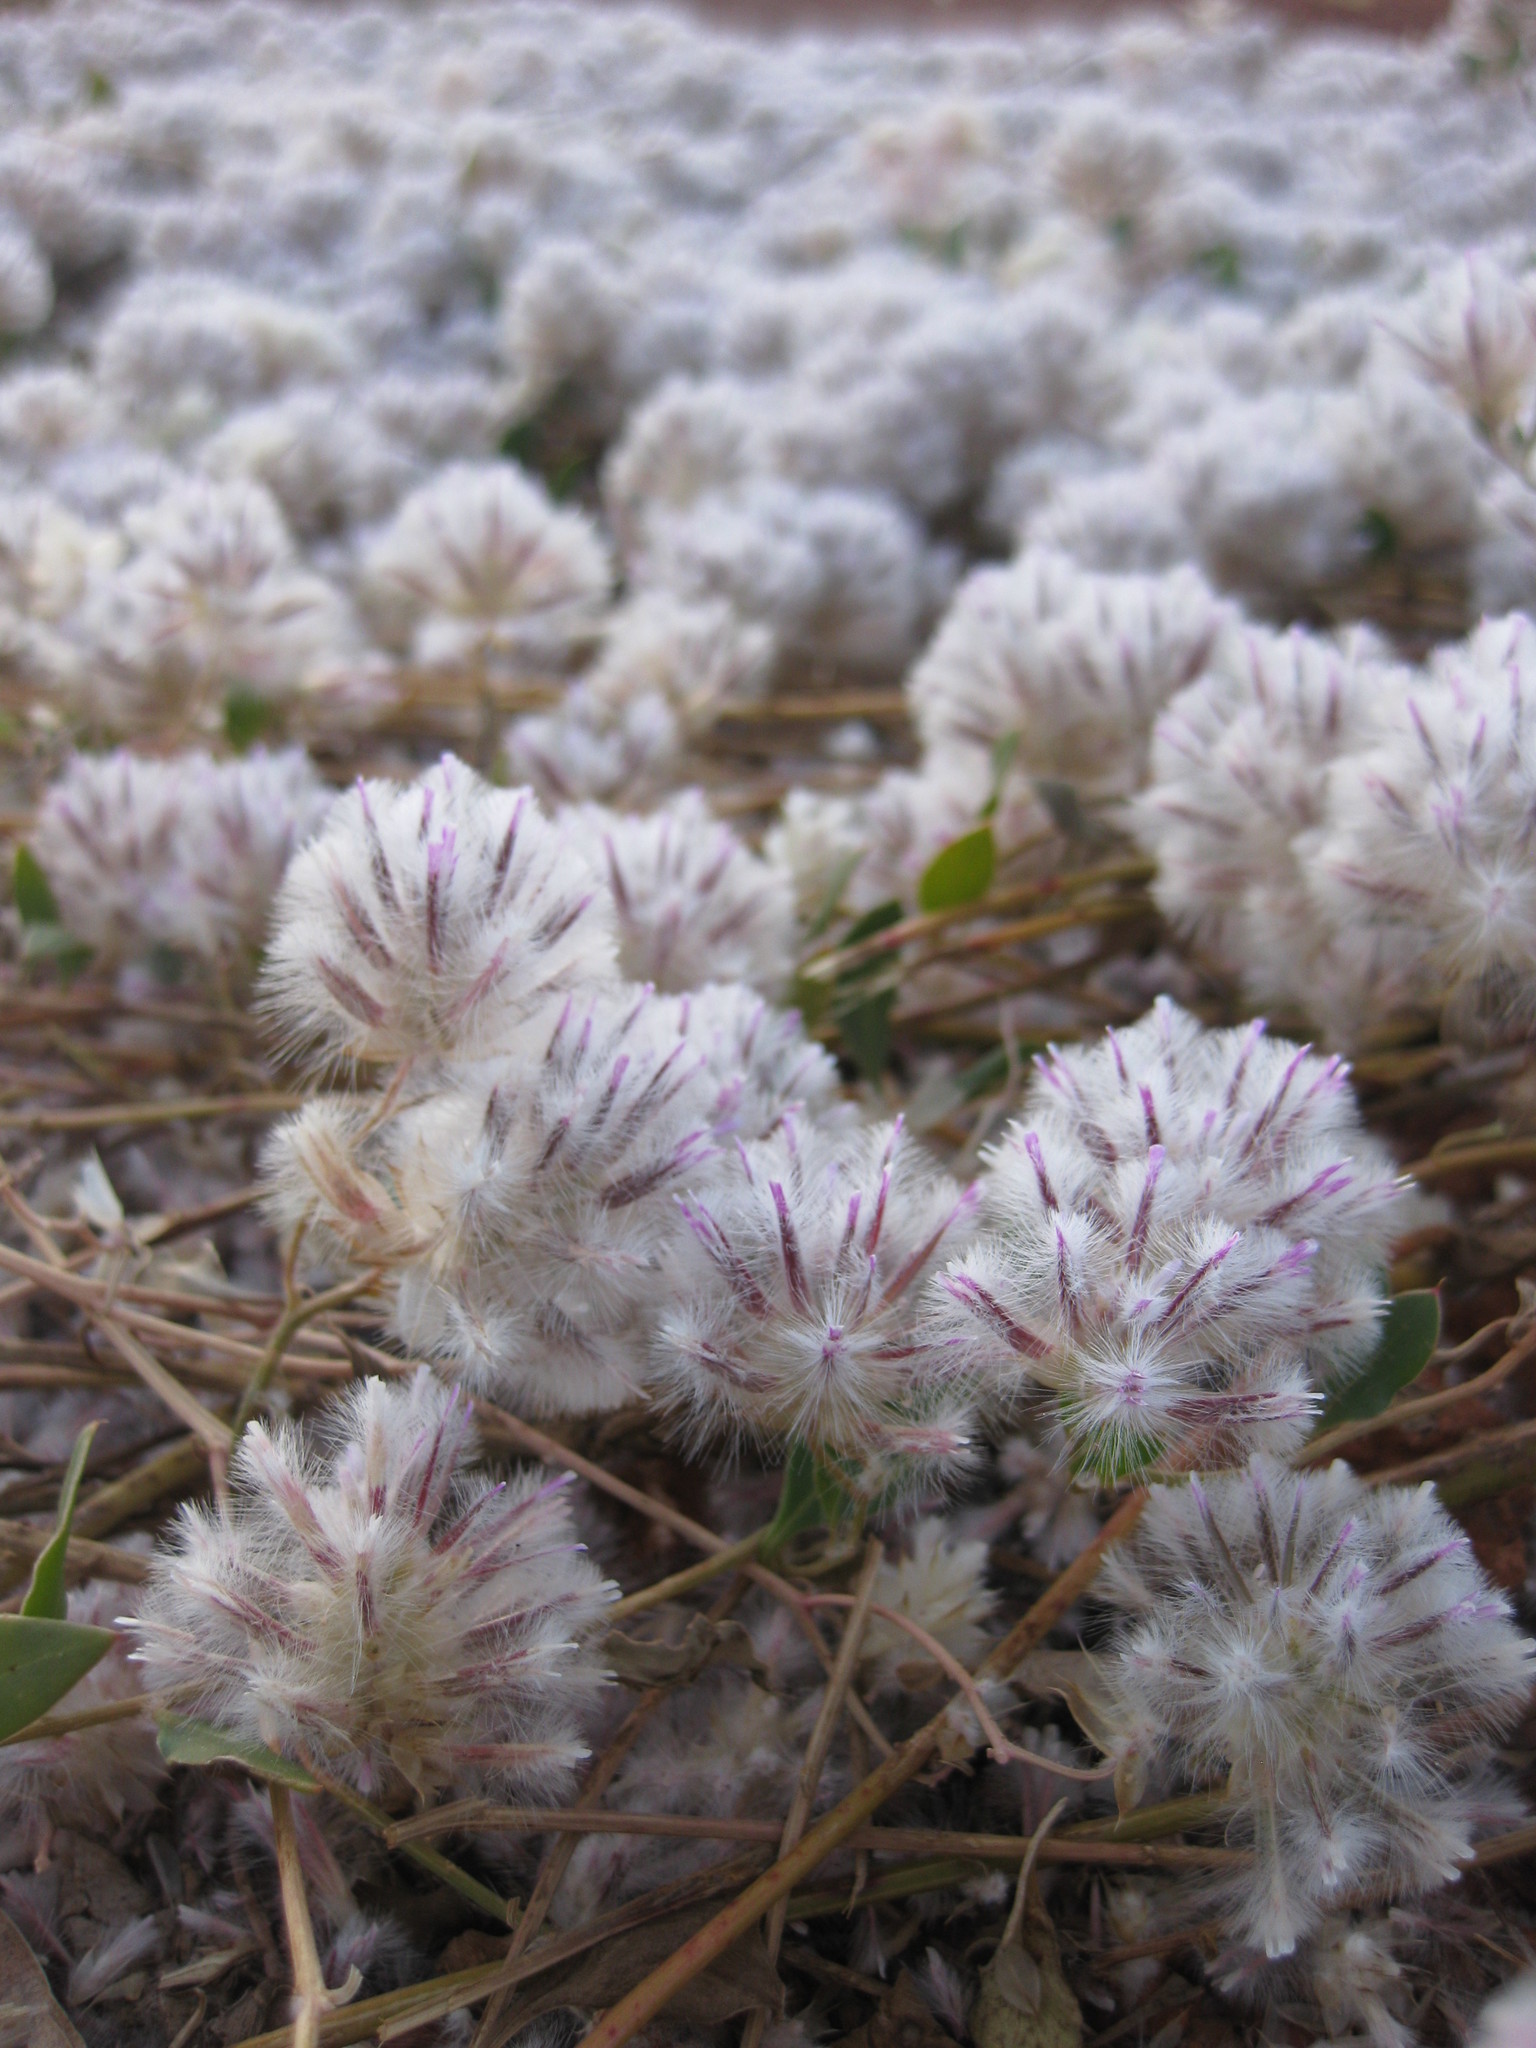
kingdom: Plantae
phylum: Tracheophyta
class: Magnoliopsida
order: Caryophyllales
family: Amaranthaceae
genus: Ptilotus
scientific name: Ptilotus axillaris
